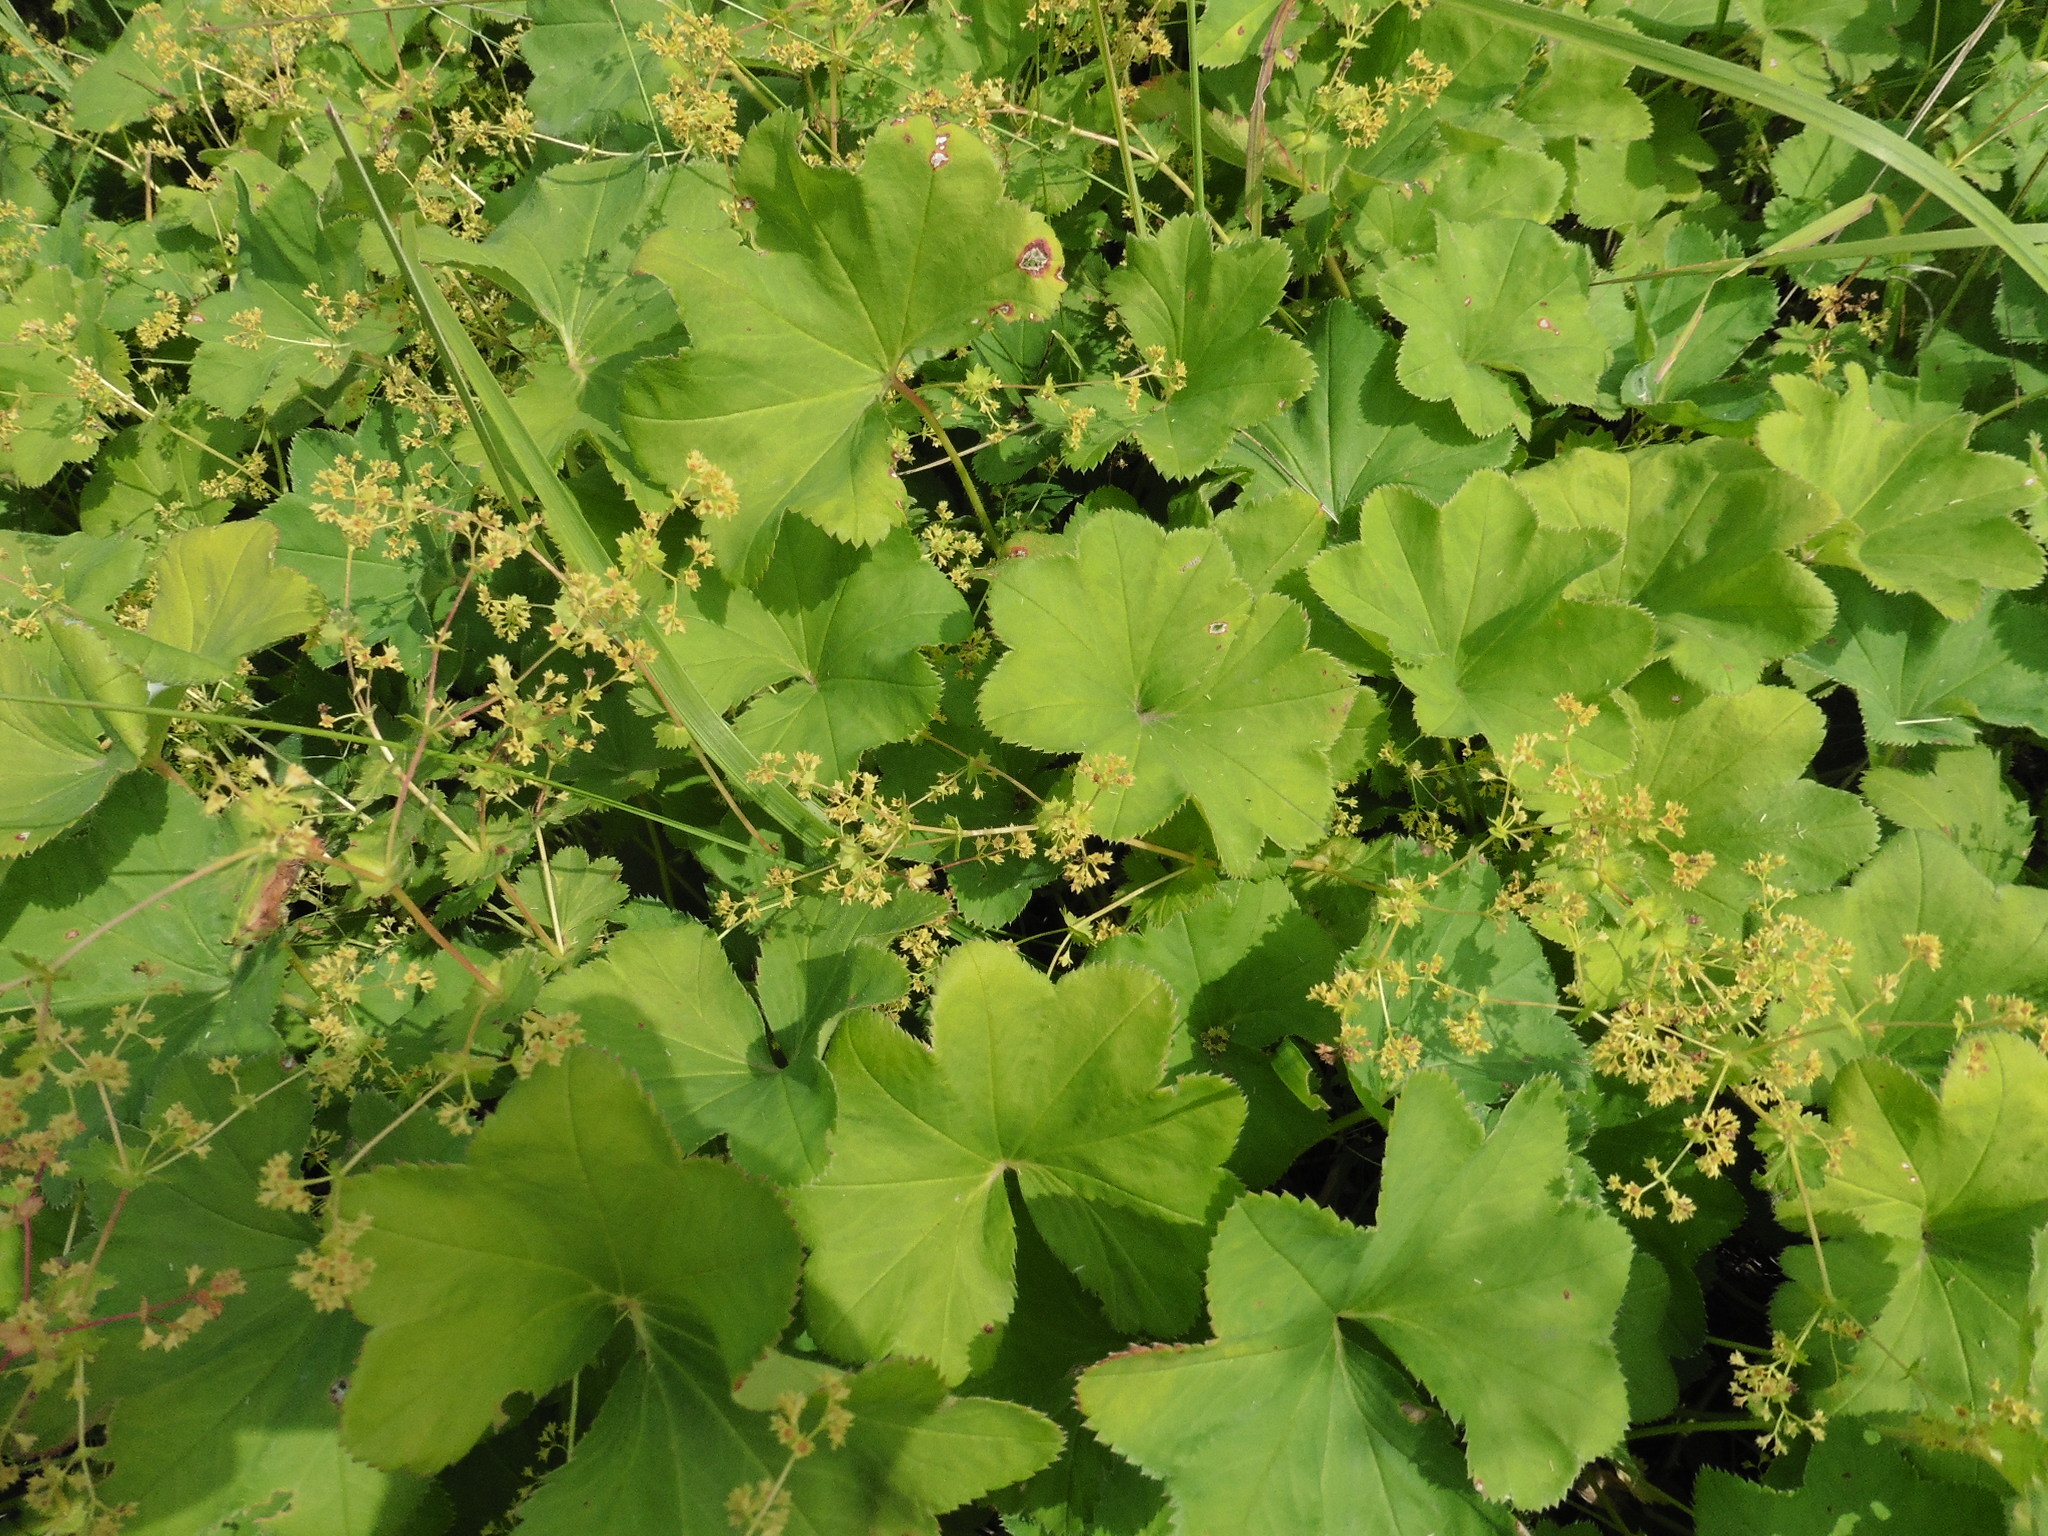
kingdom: Plantae
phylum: Tracheophyta
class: Magnoliopsida
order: Rosales
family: Rosaceae
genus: Alchemilla
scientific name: Alchemilla cymatophylla
